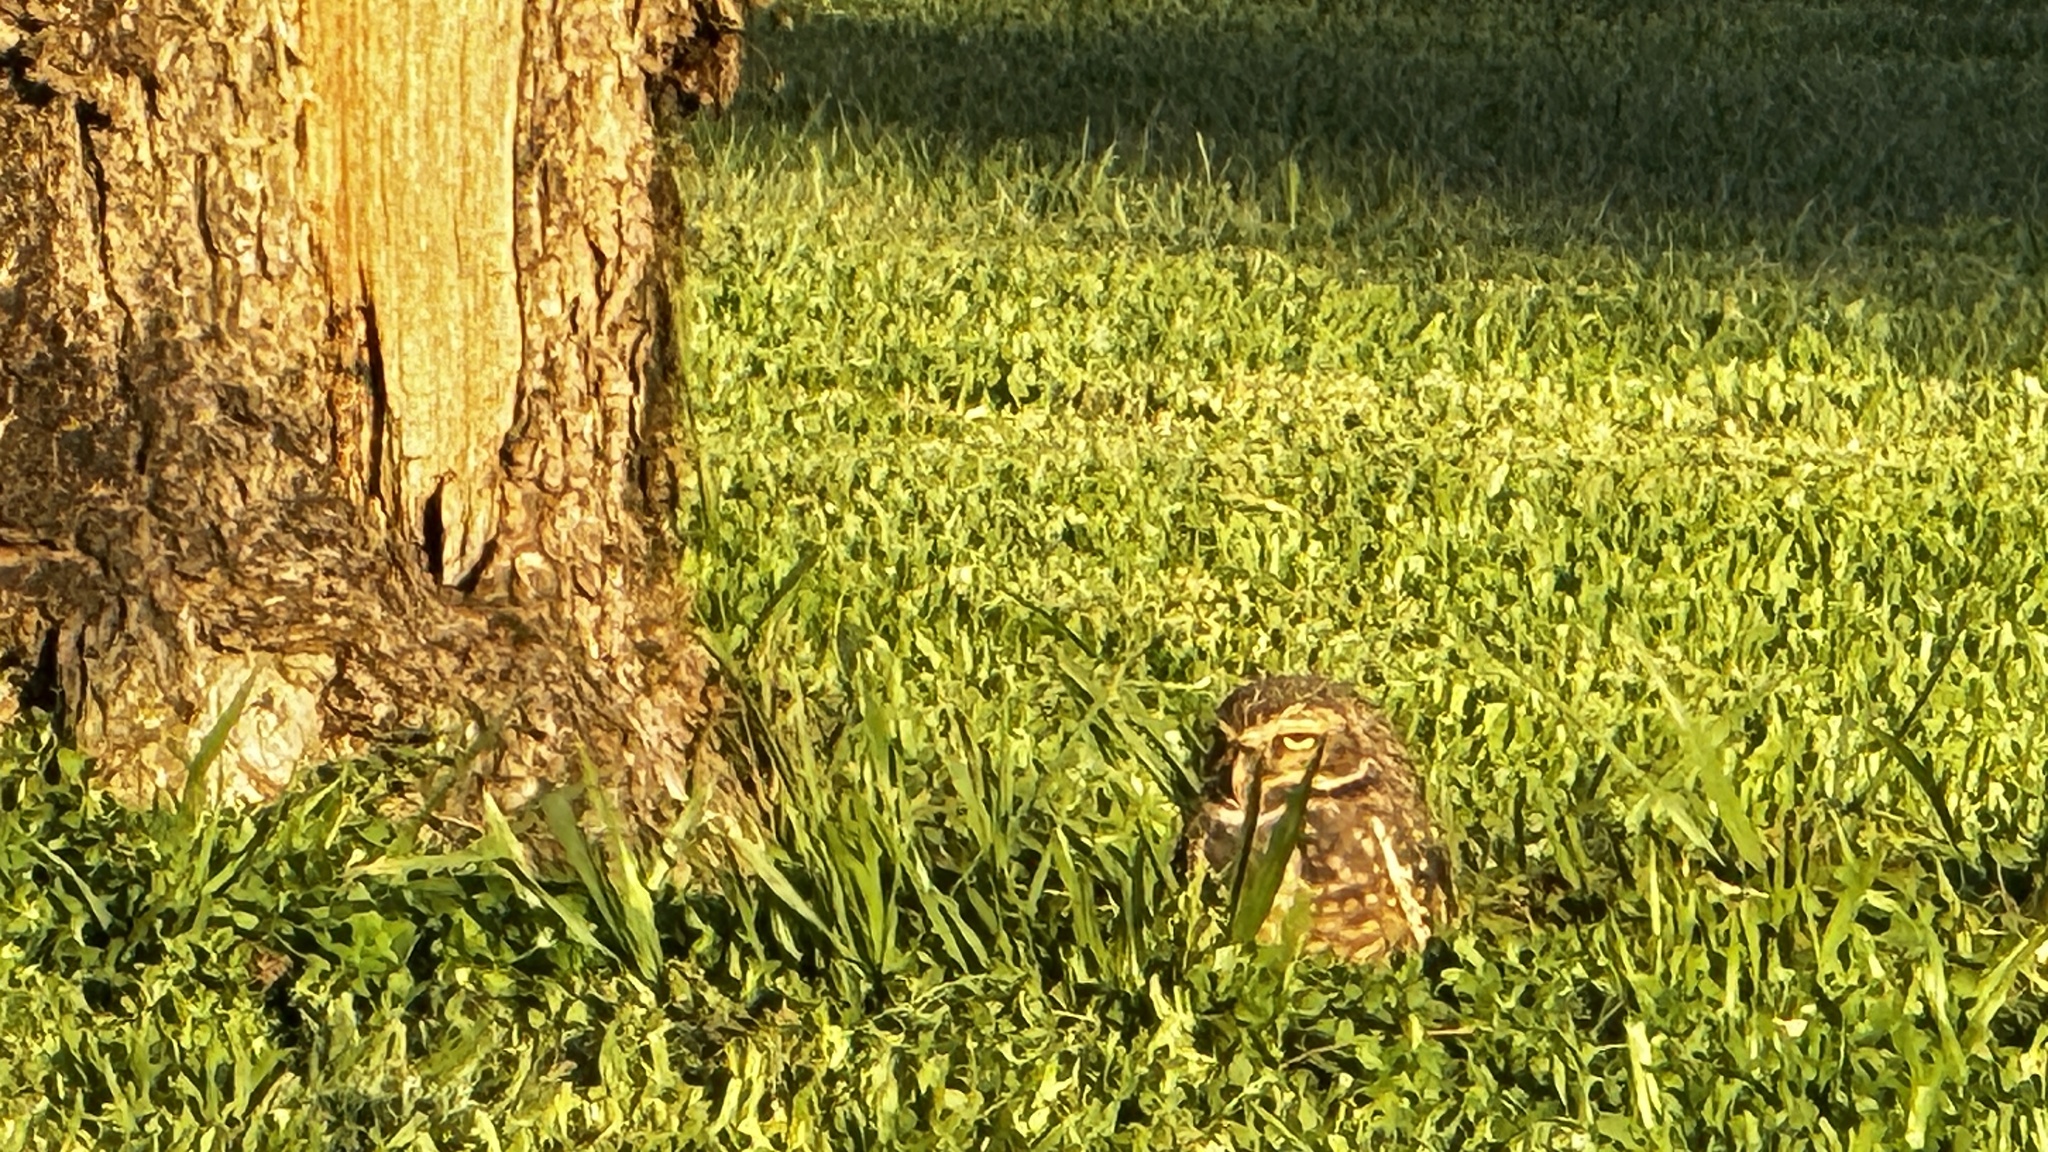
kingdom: Animalia
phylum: Chordata
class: Aves
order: Strigiformes
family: Strigidae
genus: Athene
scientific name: Athene cunicularia
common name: Burrowing owl
